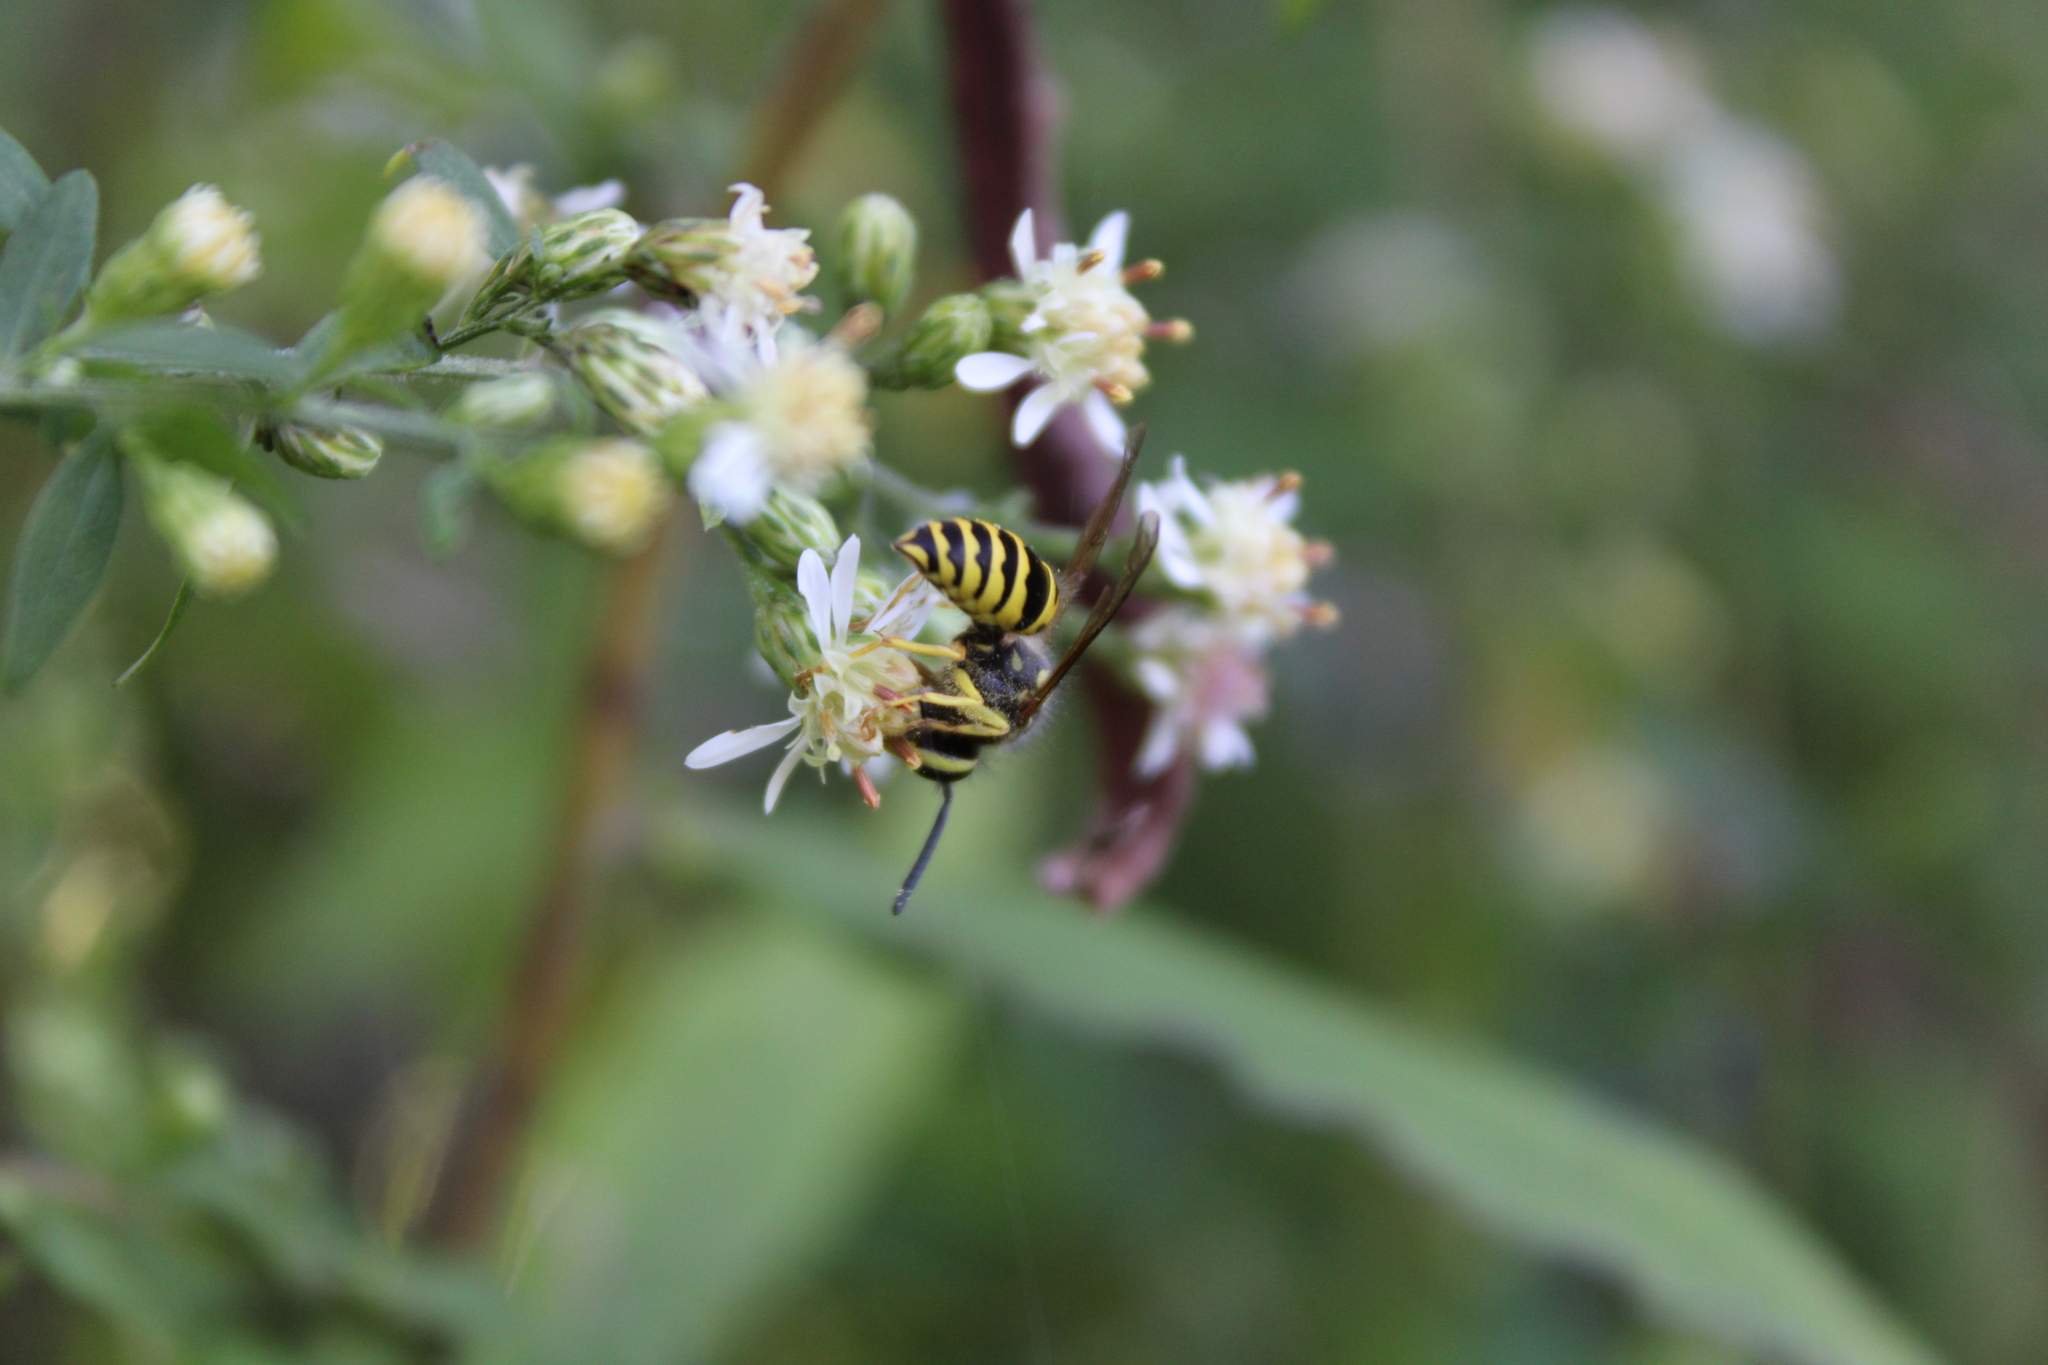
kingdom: Animalia
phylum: Arthropoda
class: Insecta
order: Hymenoptera
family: Vespidae
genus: Vespula
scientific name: Vespula maculifrons
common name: Eastern yellowjacket
